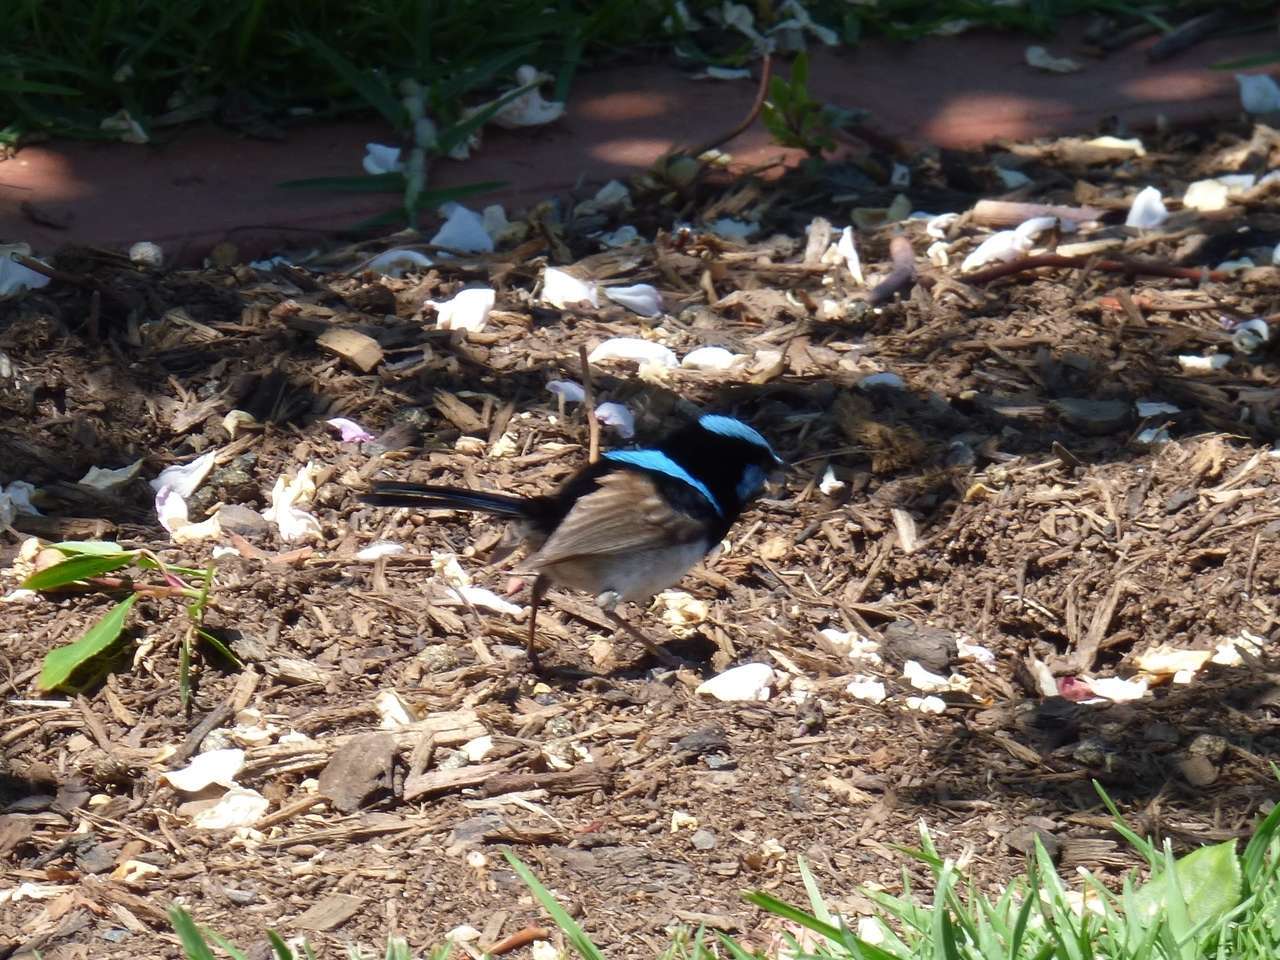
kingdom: Animalia
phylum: Chordata
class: Aves
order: Passeriformes
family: Maluridae
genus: Malurus
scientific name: Malurus cyaneus
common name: Superb fairywren
